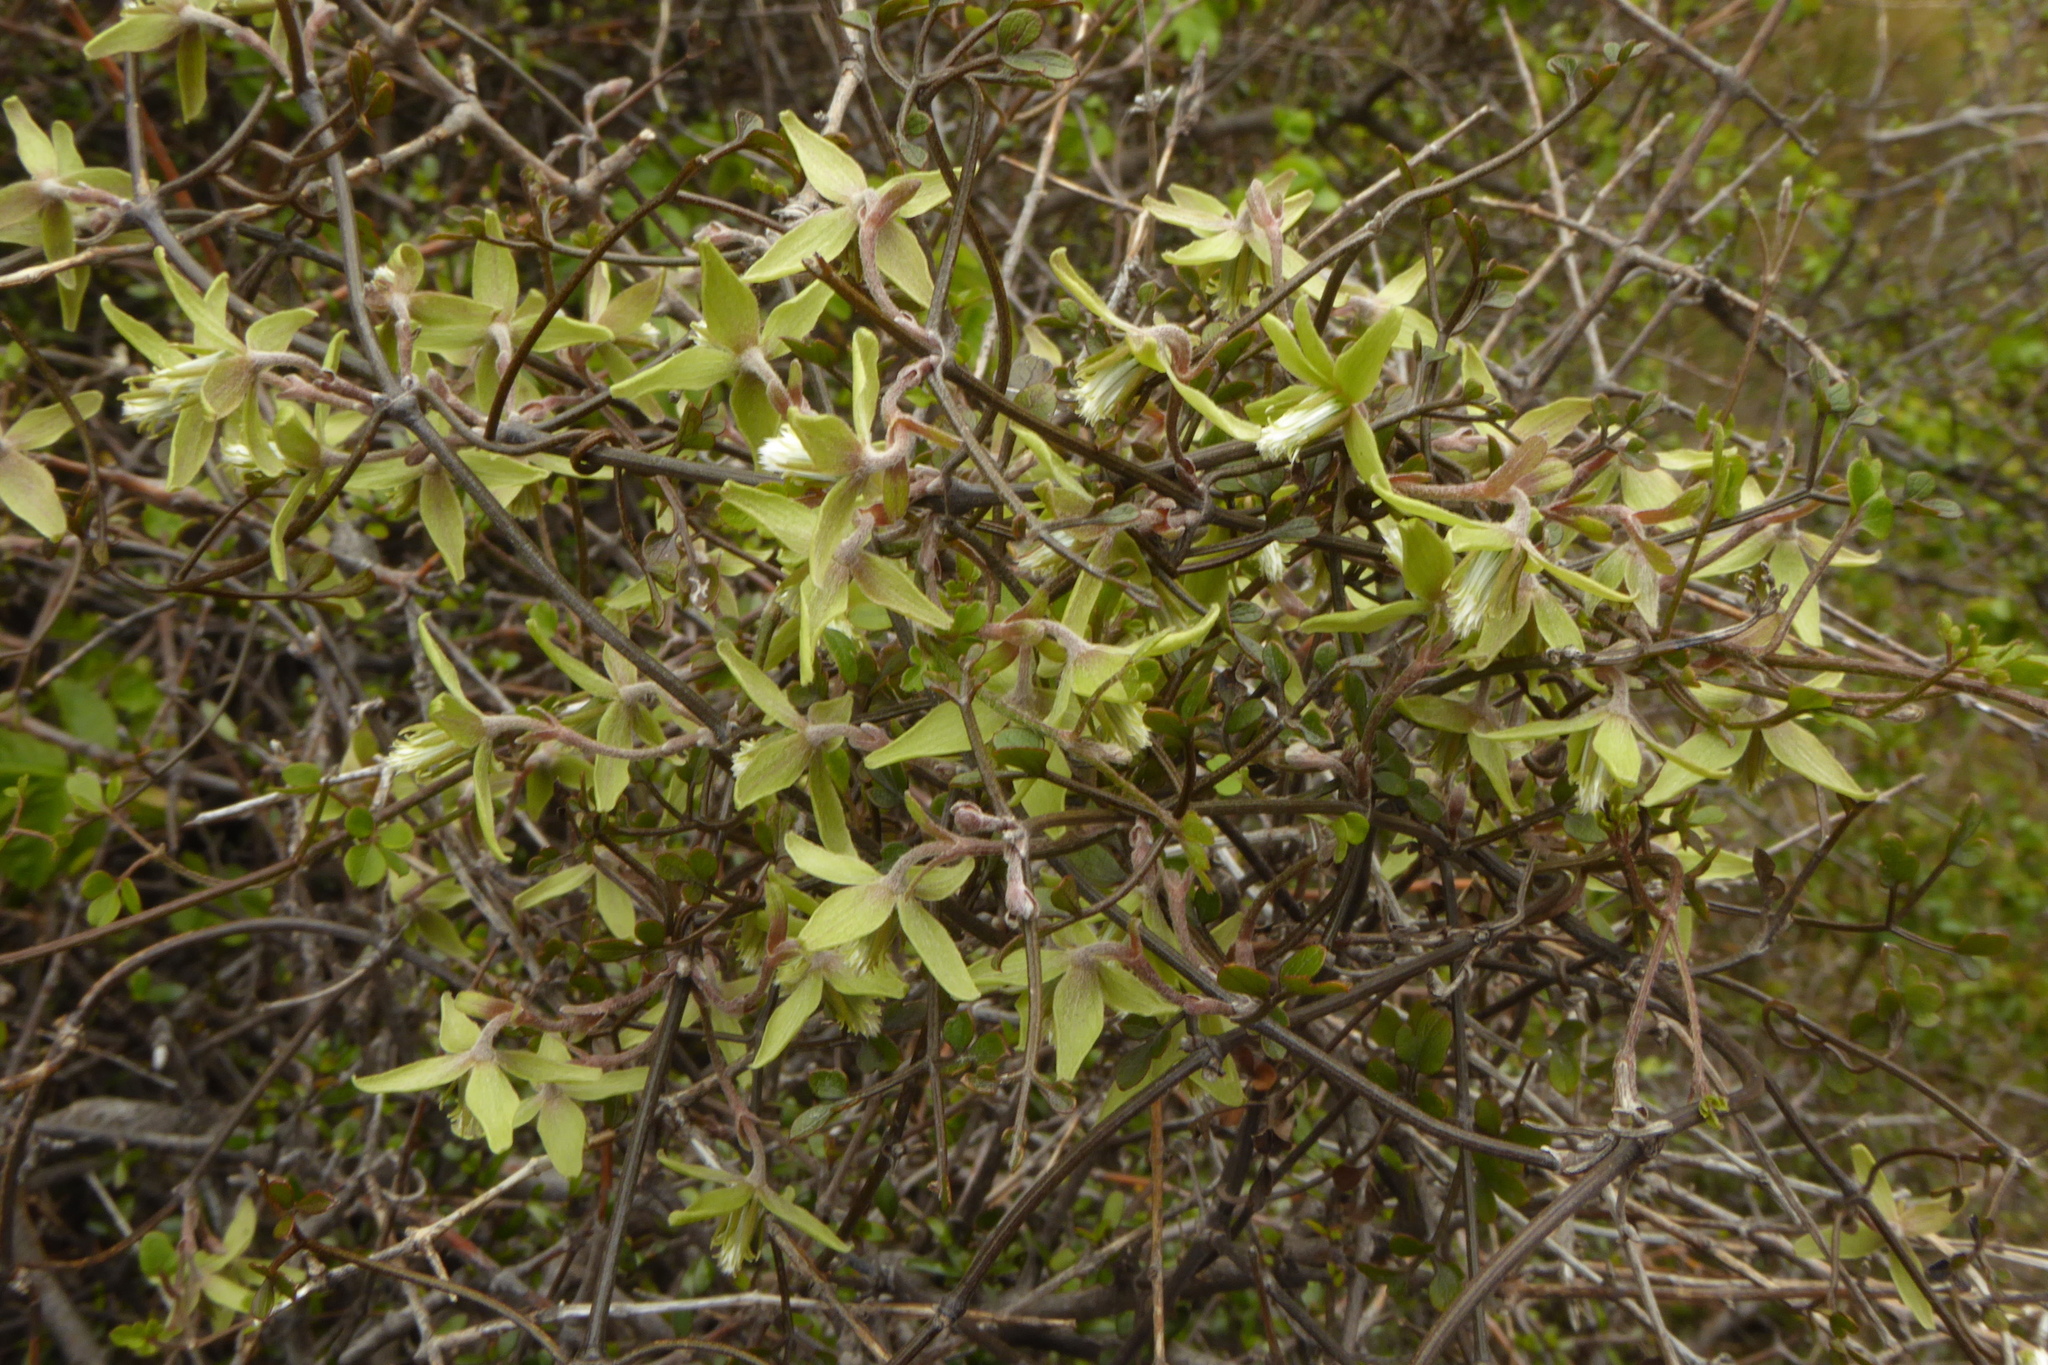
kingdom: Plantae
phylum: Tracheophyta
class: Magnoliopsida
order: Ranunculales
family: Ranunculaceae
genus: Clematis
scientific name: Clematis marata
